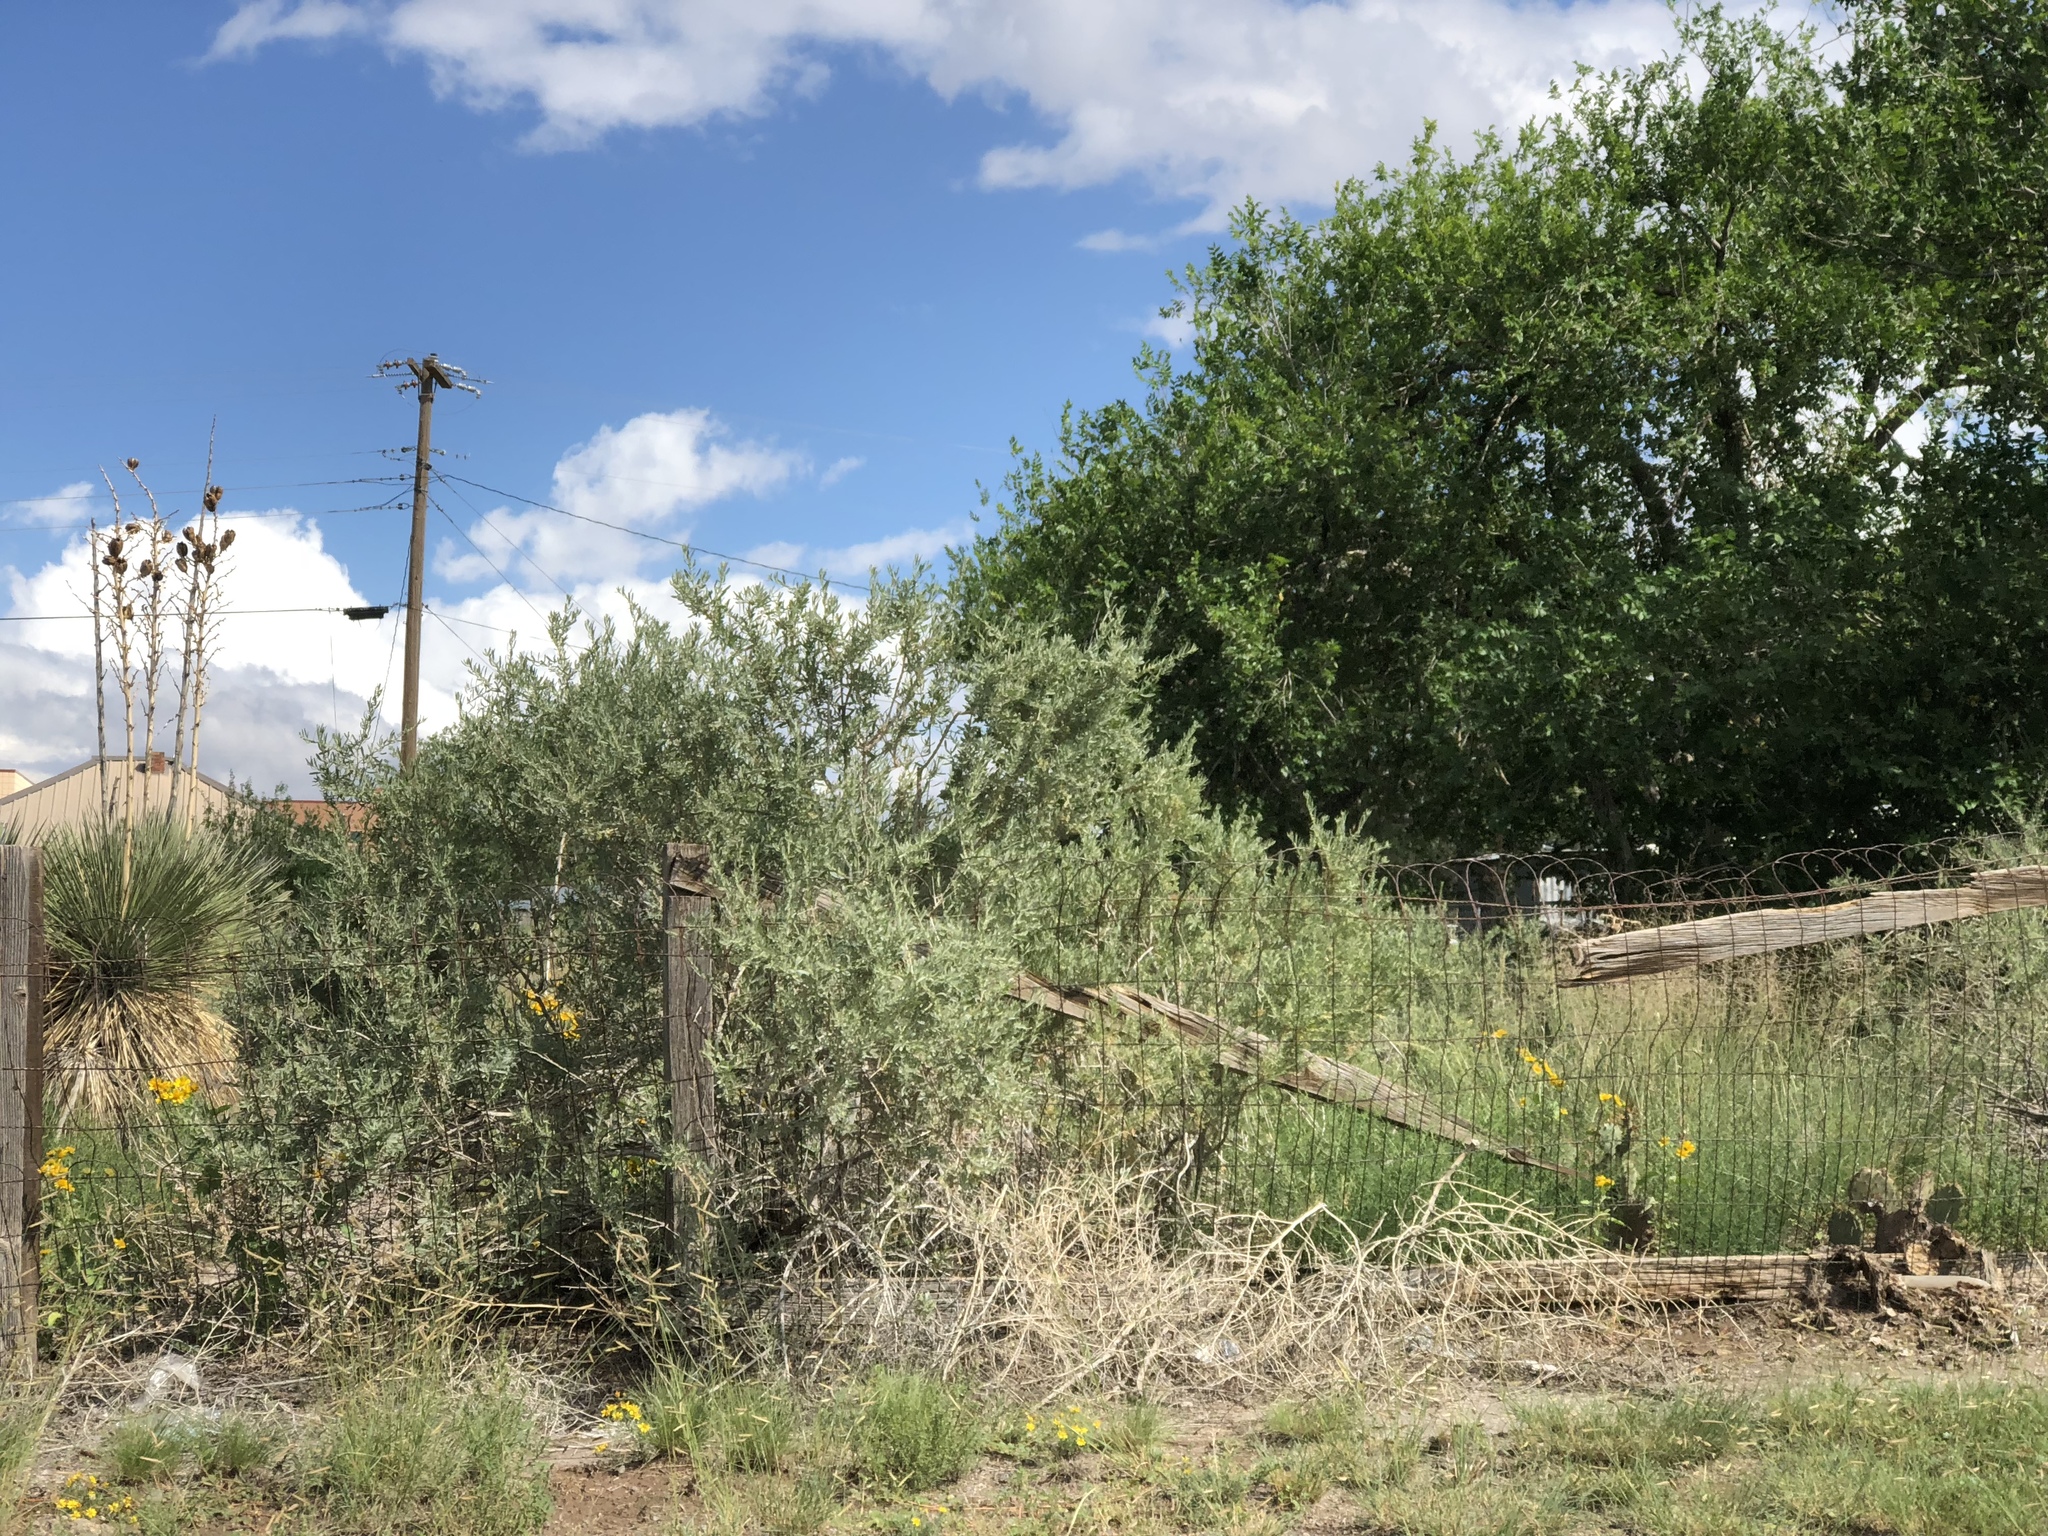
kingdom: Plantae
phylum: Tracheophyta
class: Magnoliopsida
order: Caryophyllales
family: Amaranthaceae
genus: Atriplex
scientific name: Atriplex canescens
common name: Four-wing saltbush
